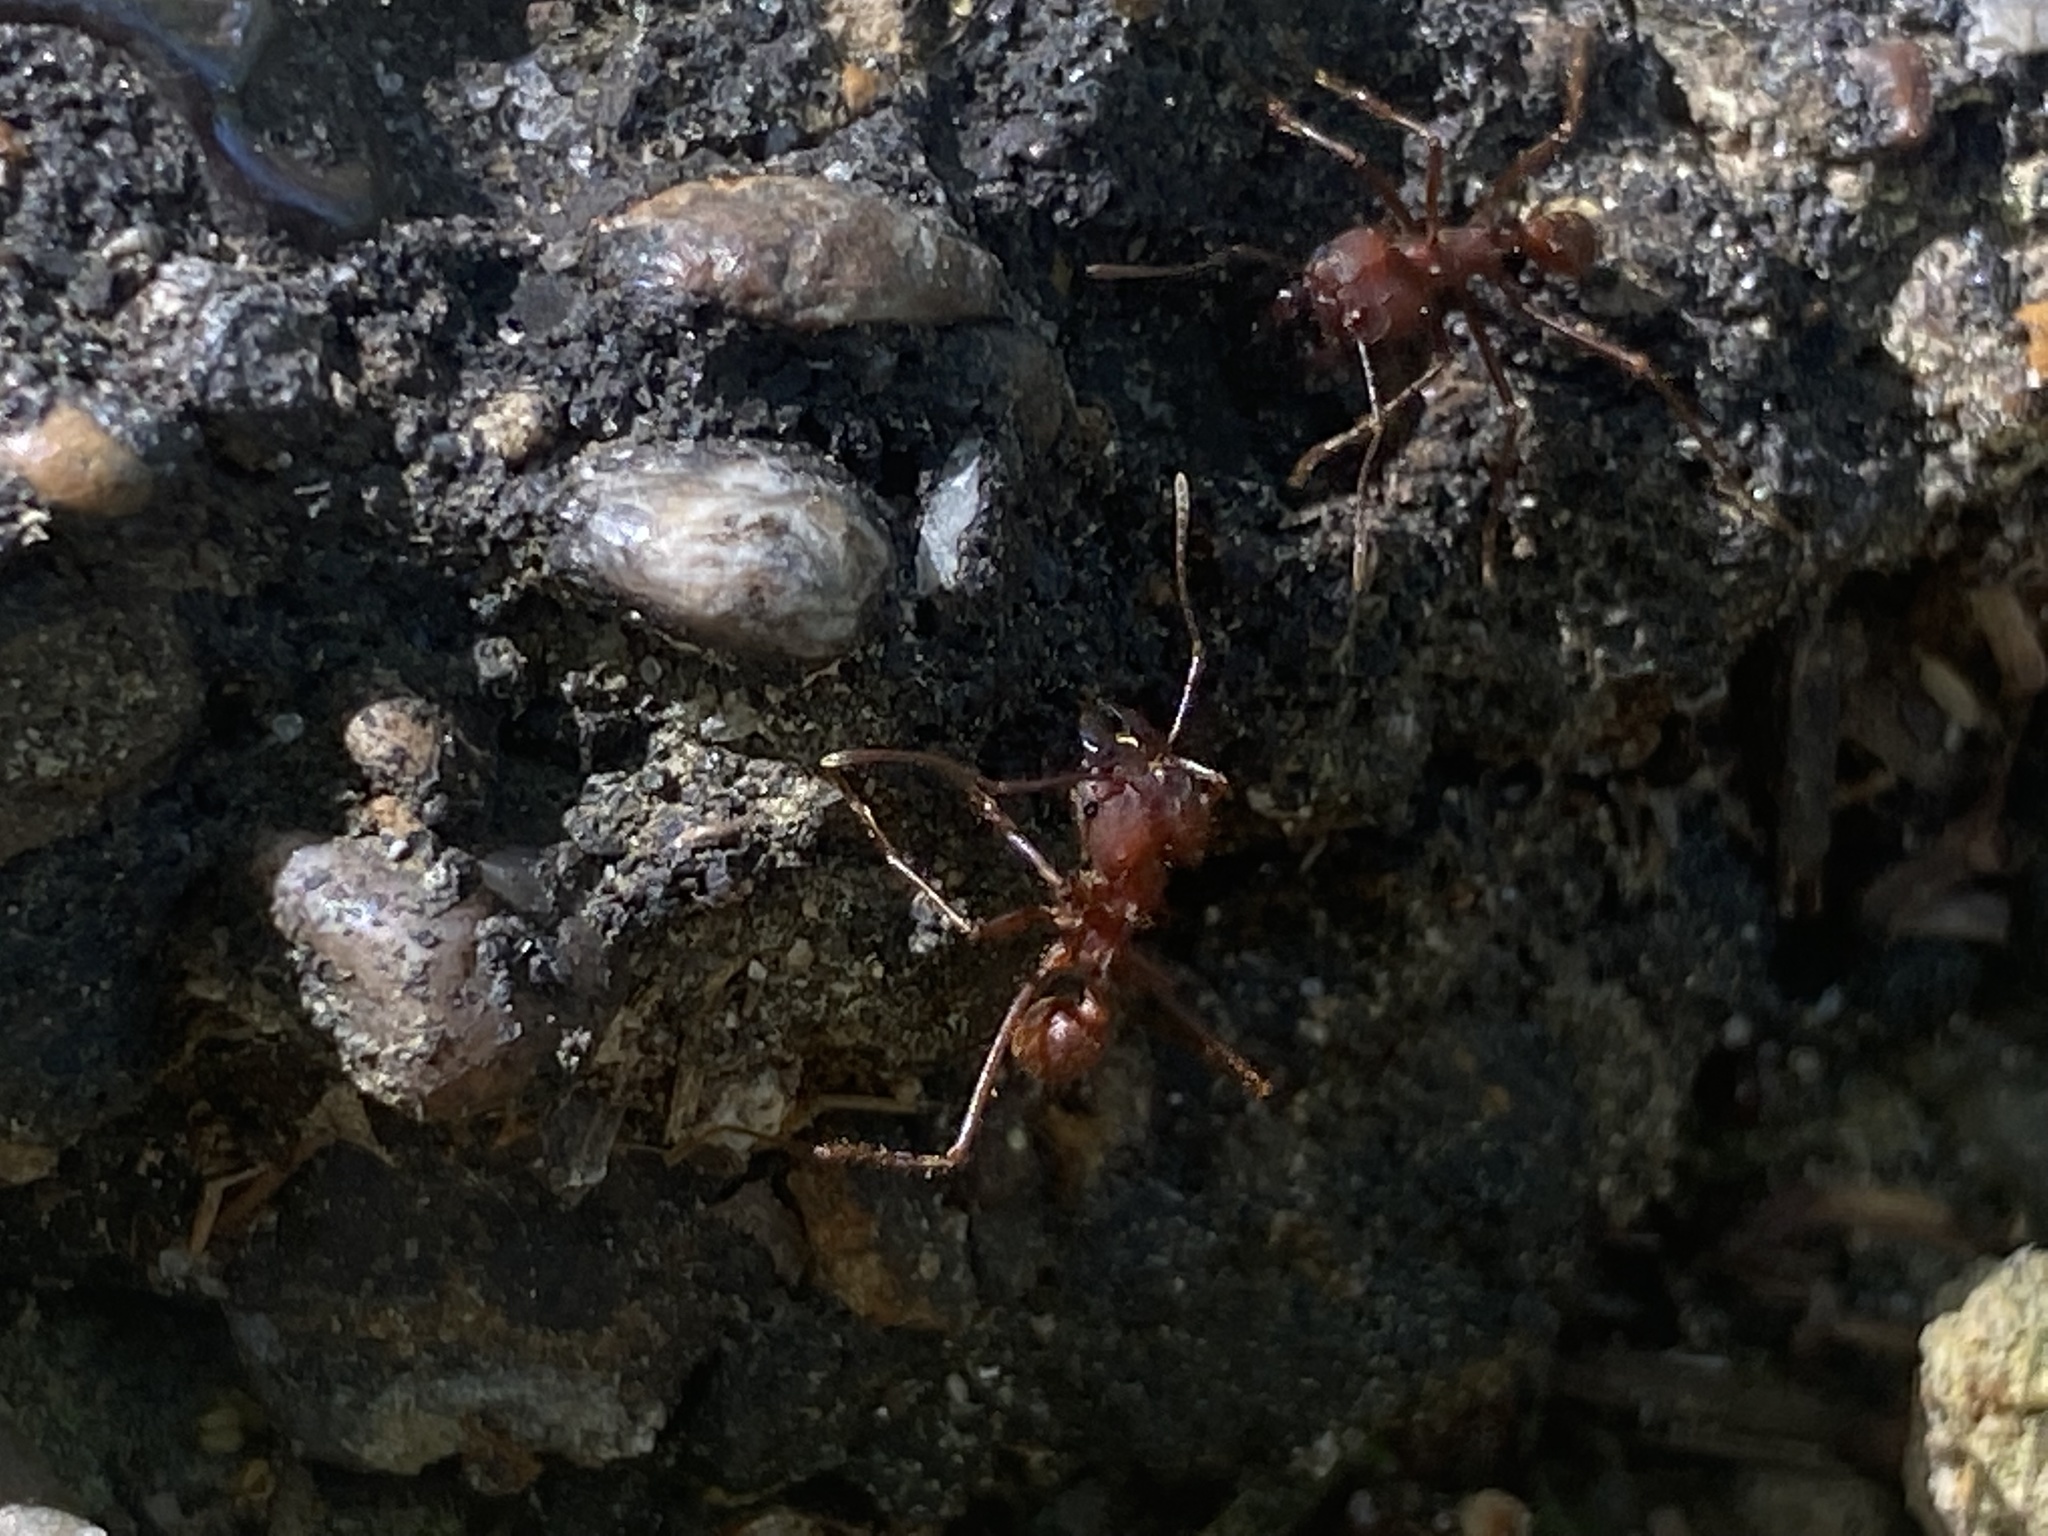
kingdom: Animalia
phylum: Arthropoda
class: Insecta
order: Hymenoptera
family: Formicidae
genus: Atta
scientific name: Atta texana
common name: Texas leafcutting ant
